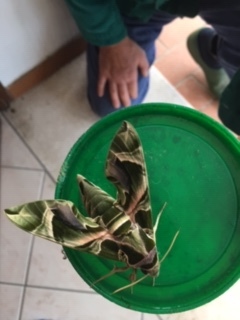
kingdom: Animalia
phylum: Arthropoda
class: Insecta
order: Lepidoptera
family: Sphingidae
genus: Daphnis
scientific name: Daphnis nerii
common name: Oleander hawk-moth
